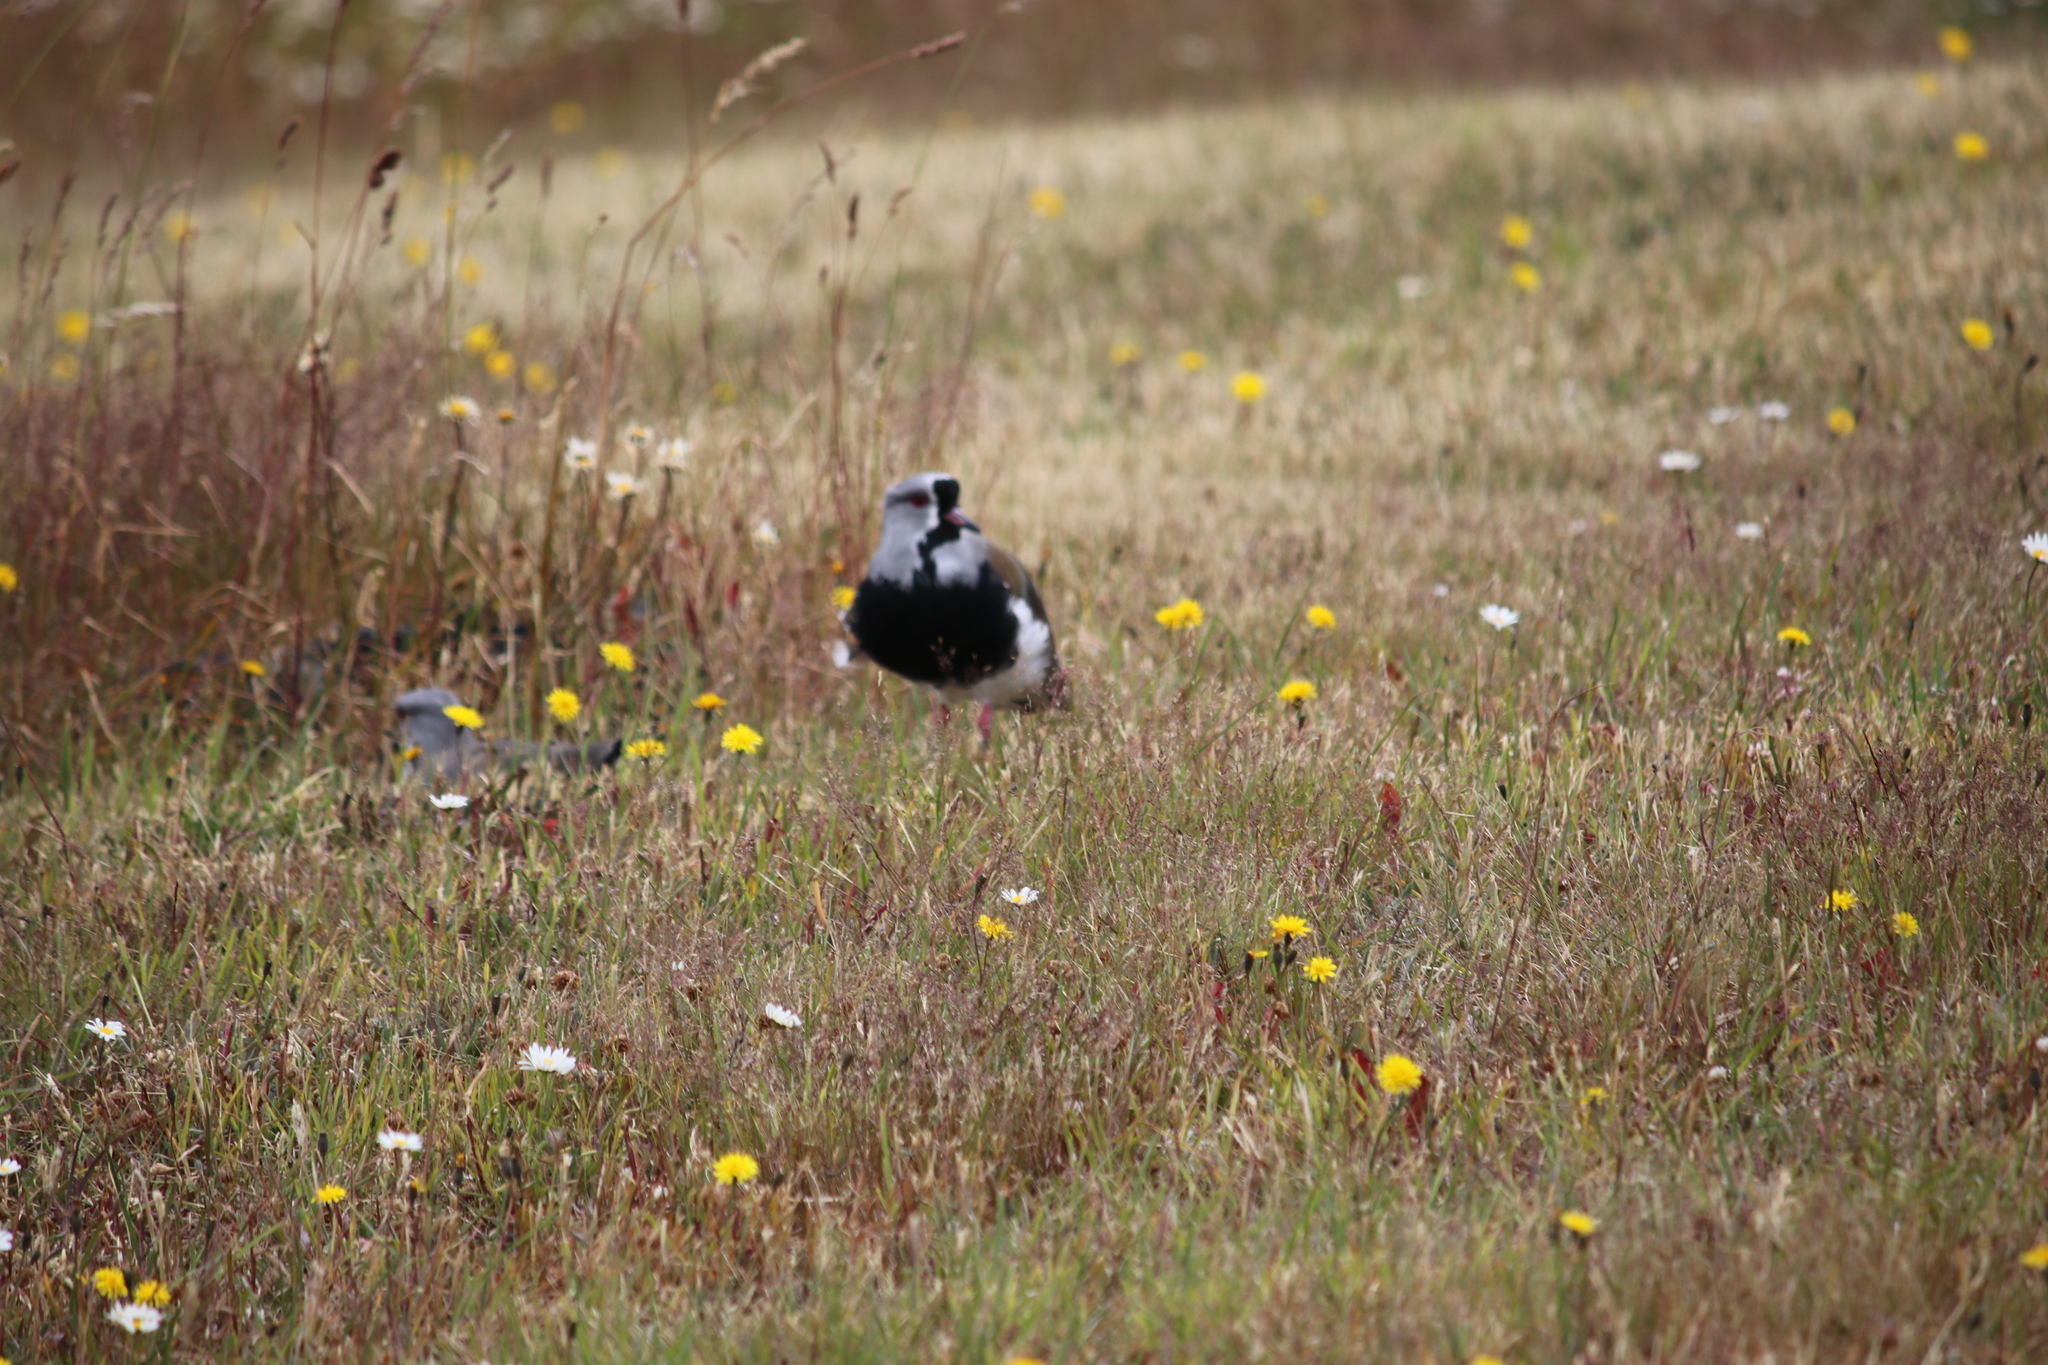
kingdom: Animalia
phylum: Chordata
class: Aves
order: Charadriiformes
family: Charadriidae
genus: Vanellus
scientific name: Vanellus chilensis
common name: Southern lapwing
